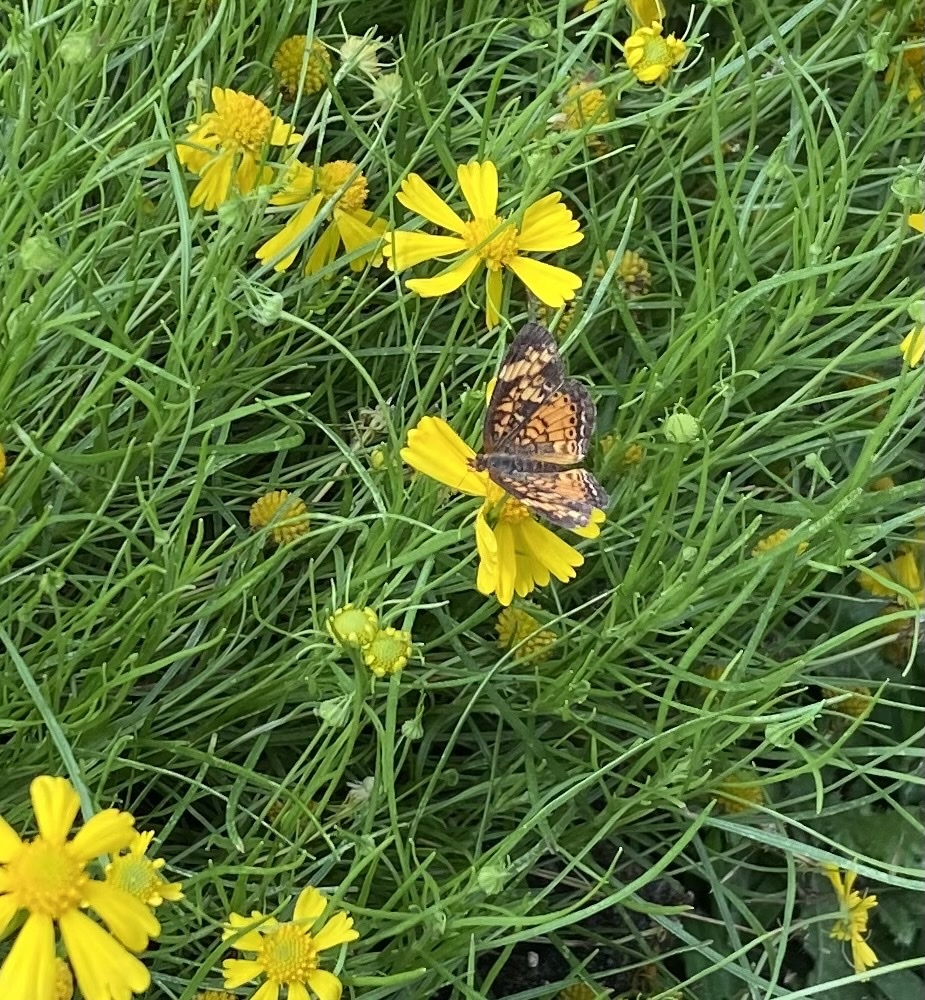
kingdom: Animalia
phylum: Arthropoda
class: Insecta
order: Lepidoptera
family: Nymphalidae
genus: Phyciodes
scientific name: Phyciodes tharos
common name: Pearl crescent
